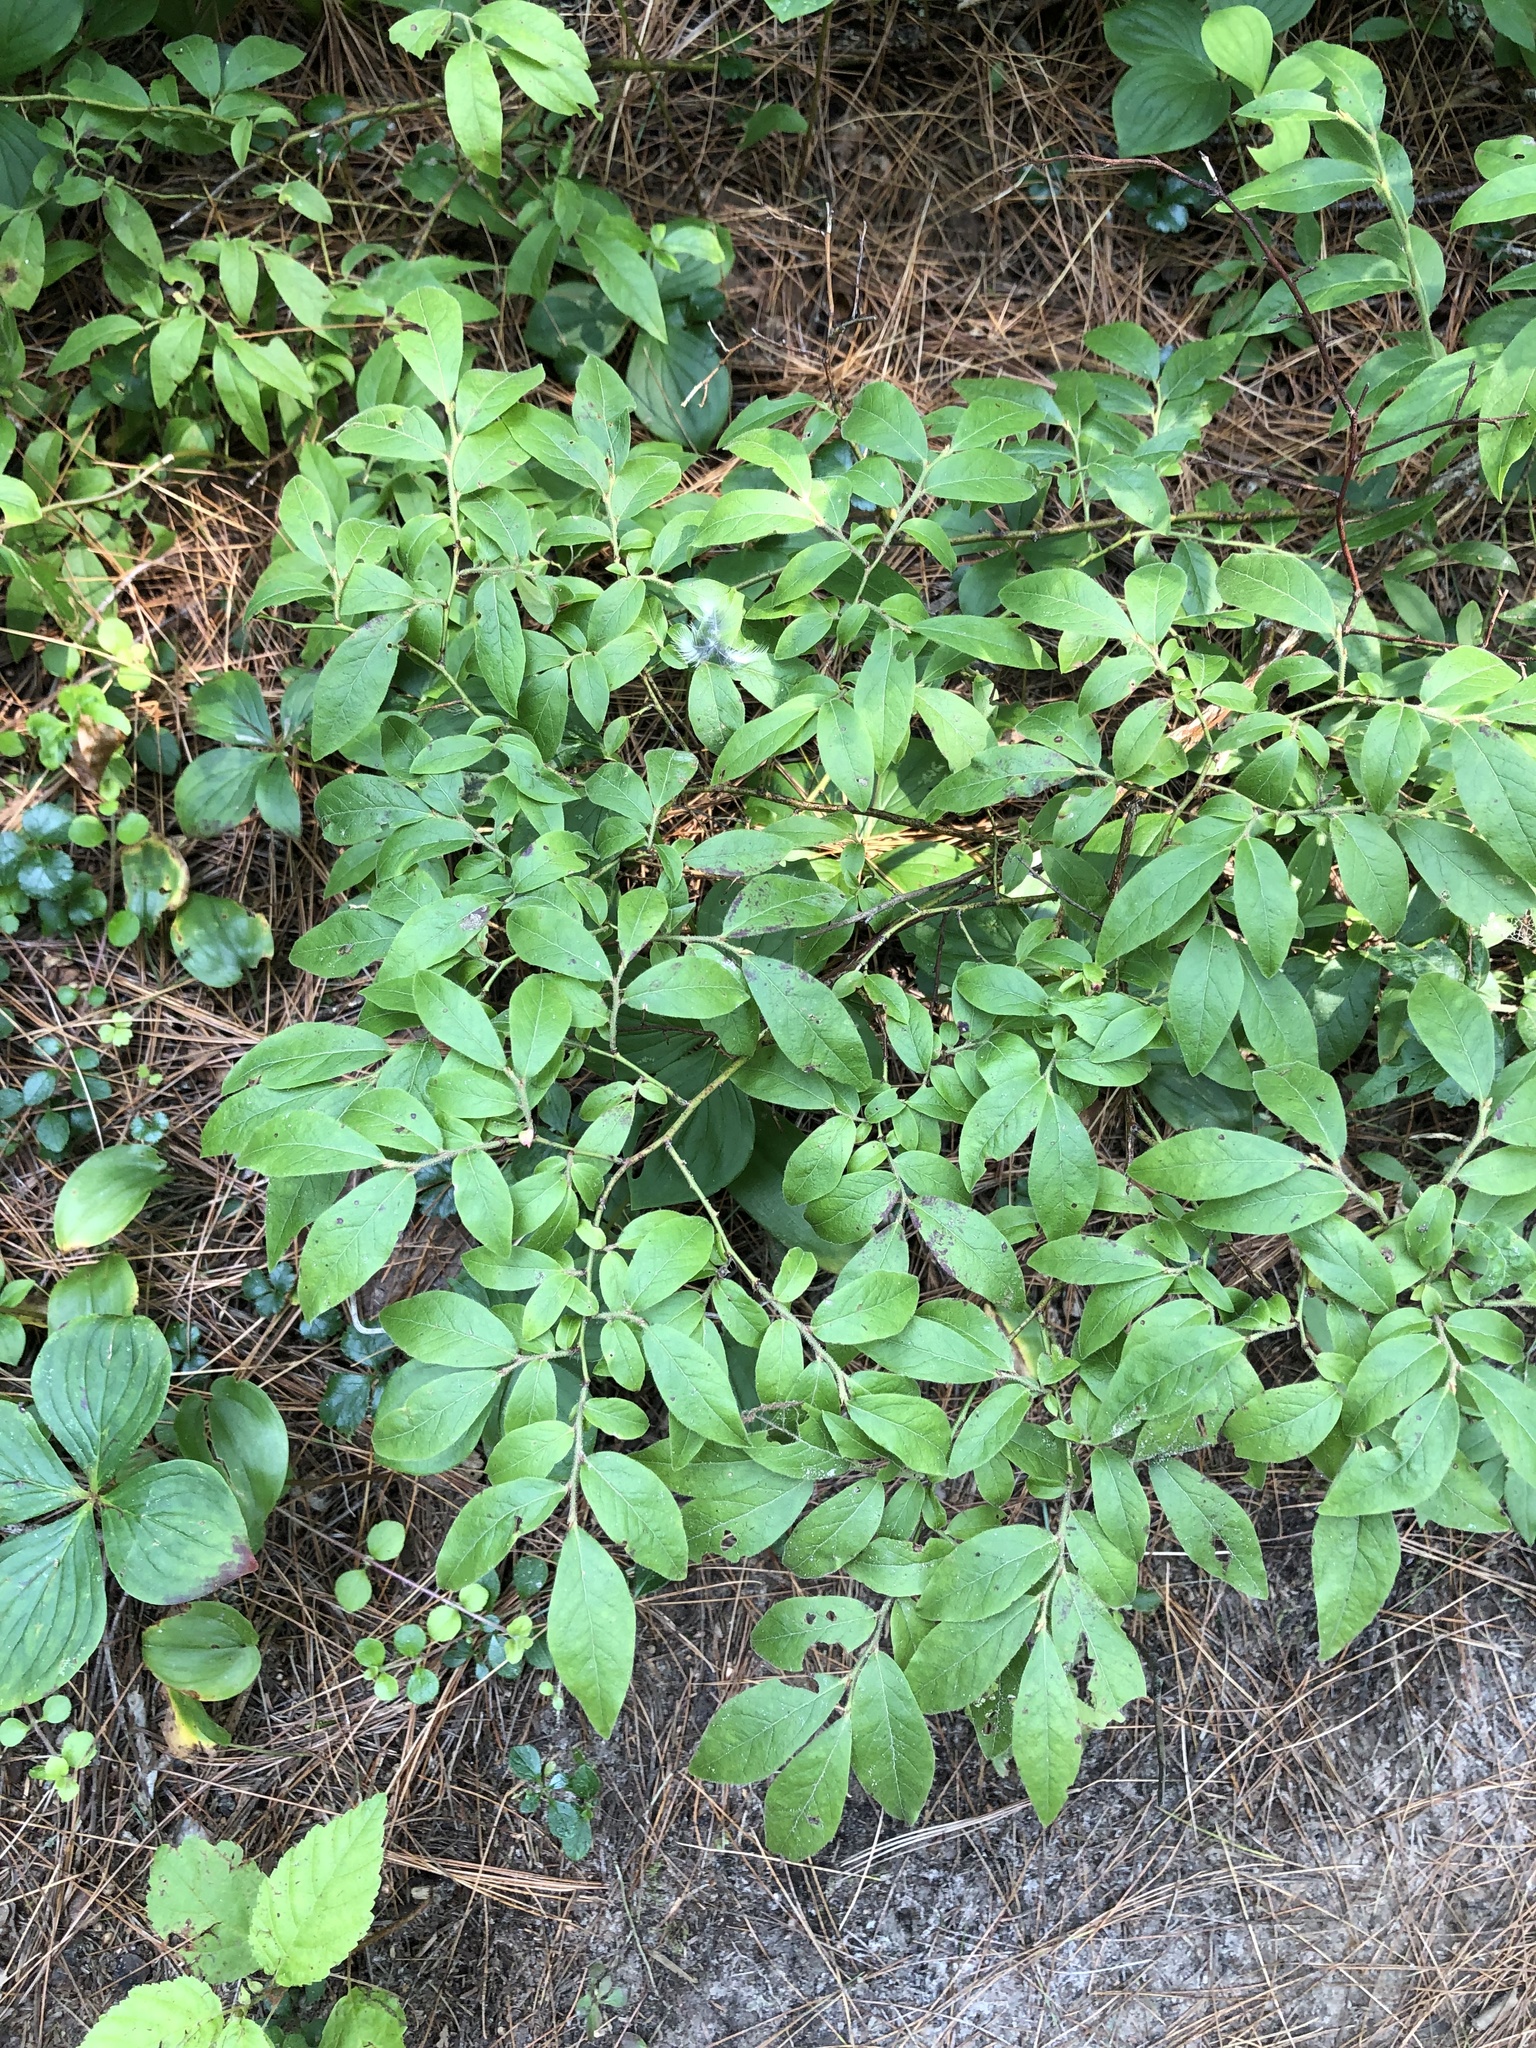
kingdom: Plantae
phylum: Tracheophyta
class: Magnoliopsida
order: Ericales
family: Ericaceae
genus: Vaccinium
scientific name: Vaccinium myrtilloides
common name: Canada blueberry
